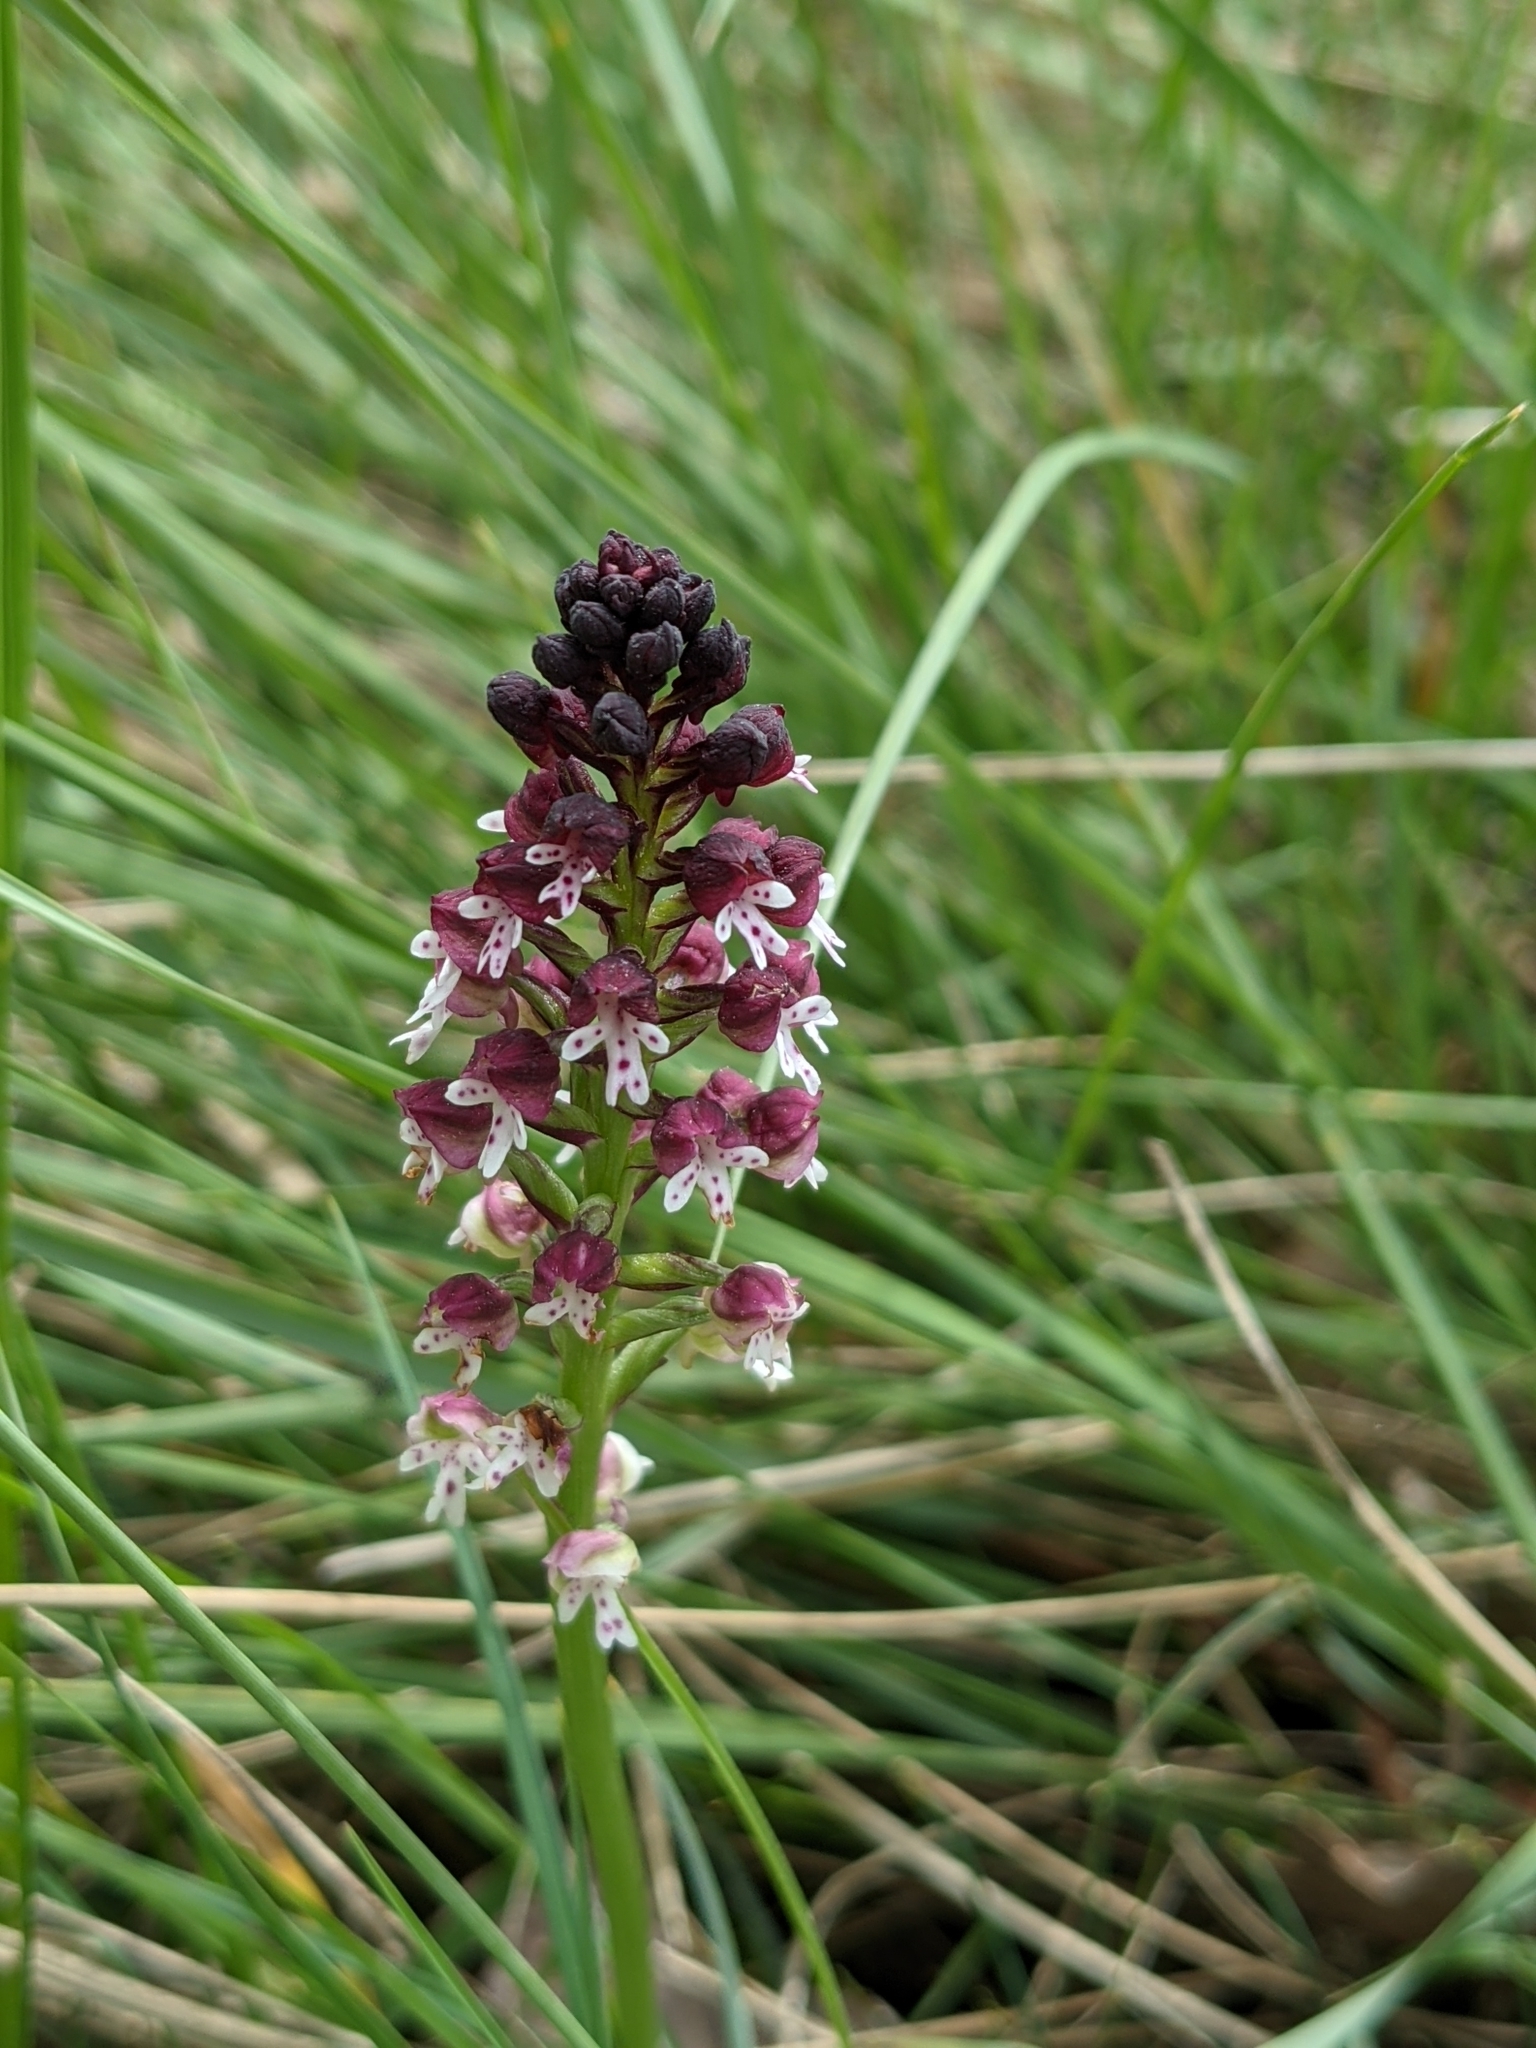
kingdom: Plantae
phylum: Tracheophyta
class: Liliopsida
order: Asparagales
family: Orchidaceae
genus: Neotinea
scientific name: Neotinea ustulata
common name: Burnt orchid
